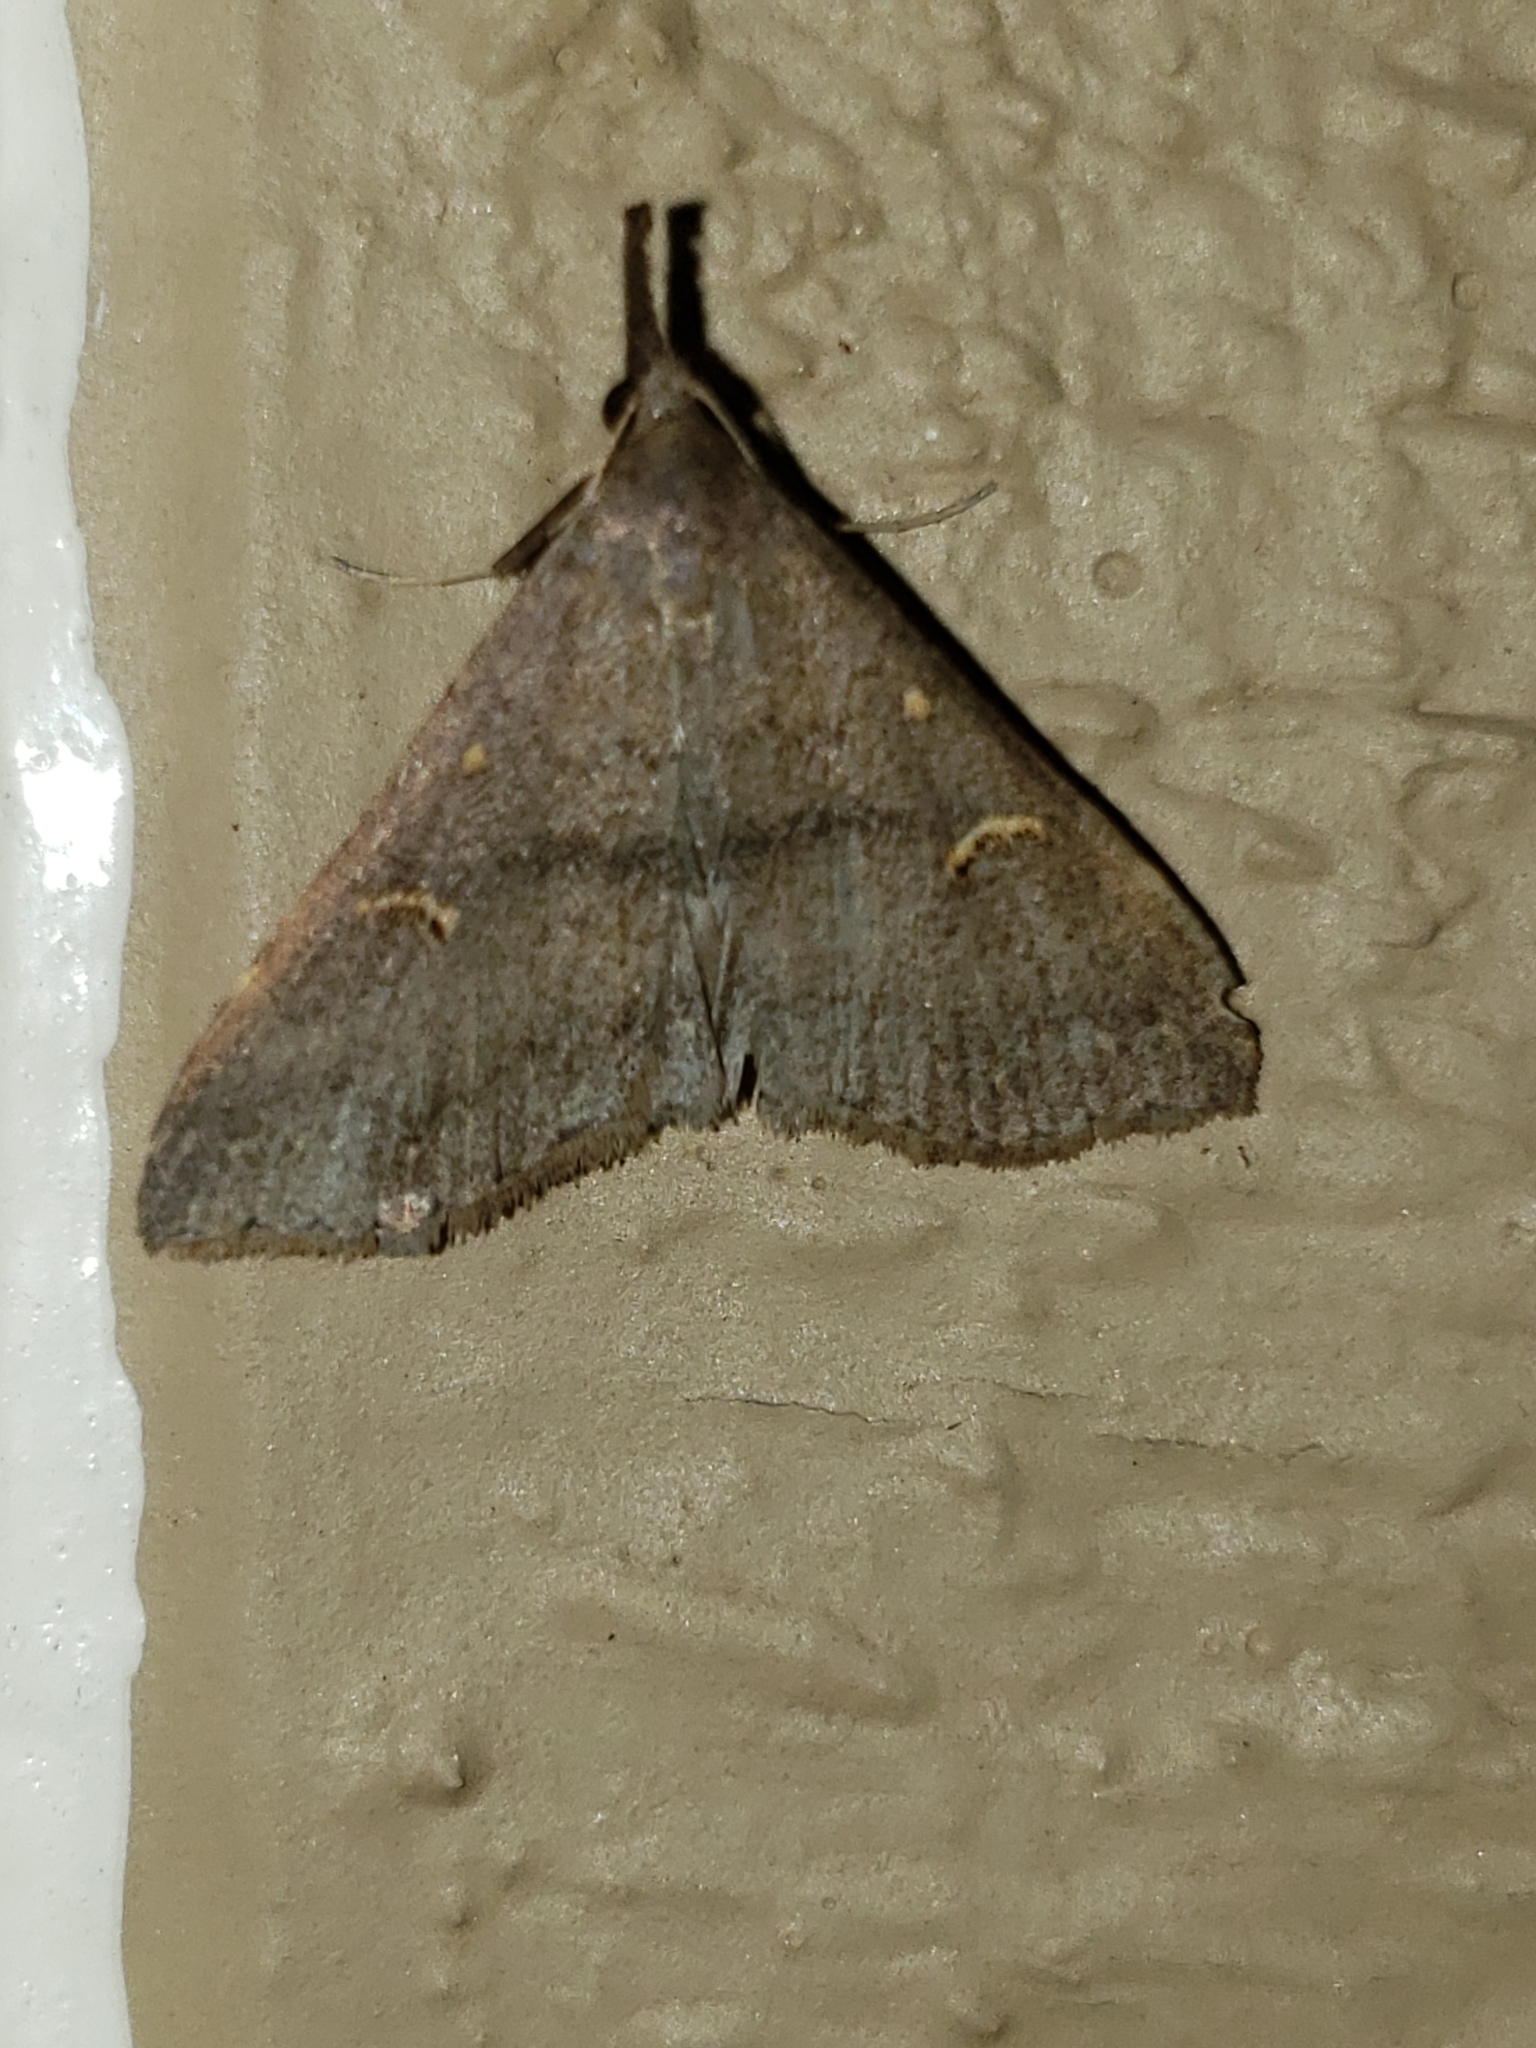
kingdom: Animalia
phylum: Arthropoda
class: Insecta
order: Lepidoptera
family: Erebidae
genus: Renia
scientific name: Renia adspergillus
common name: Speckled renia moth
